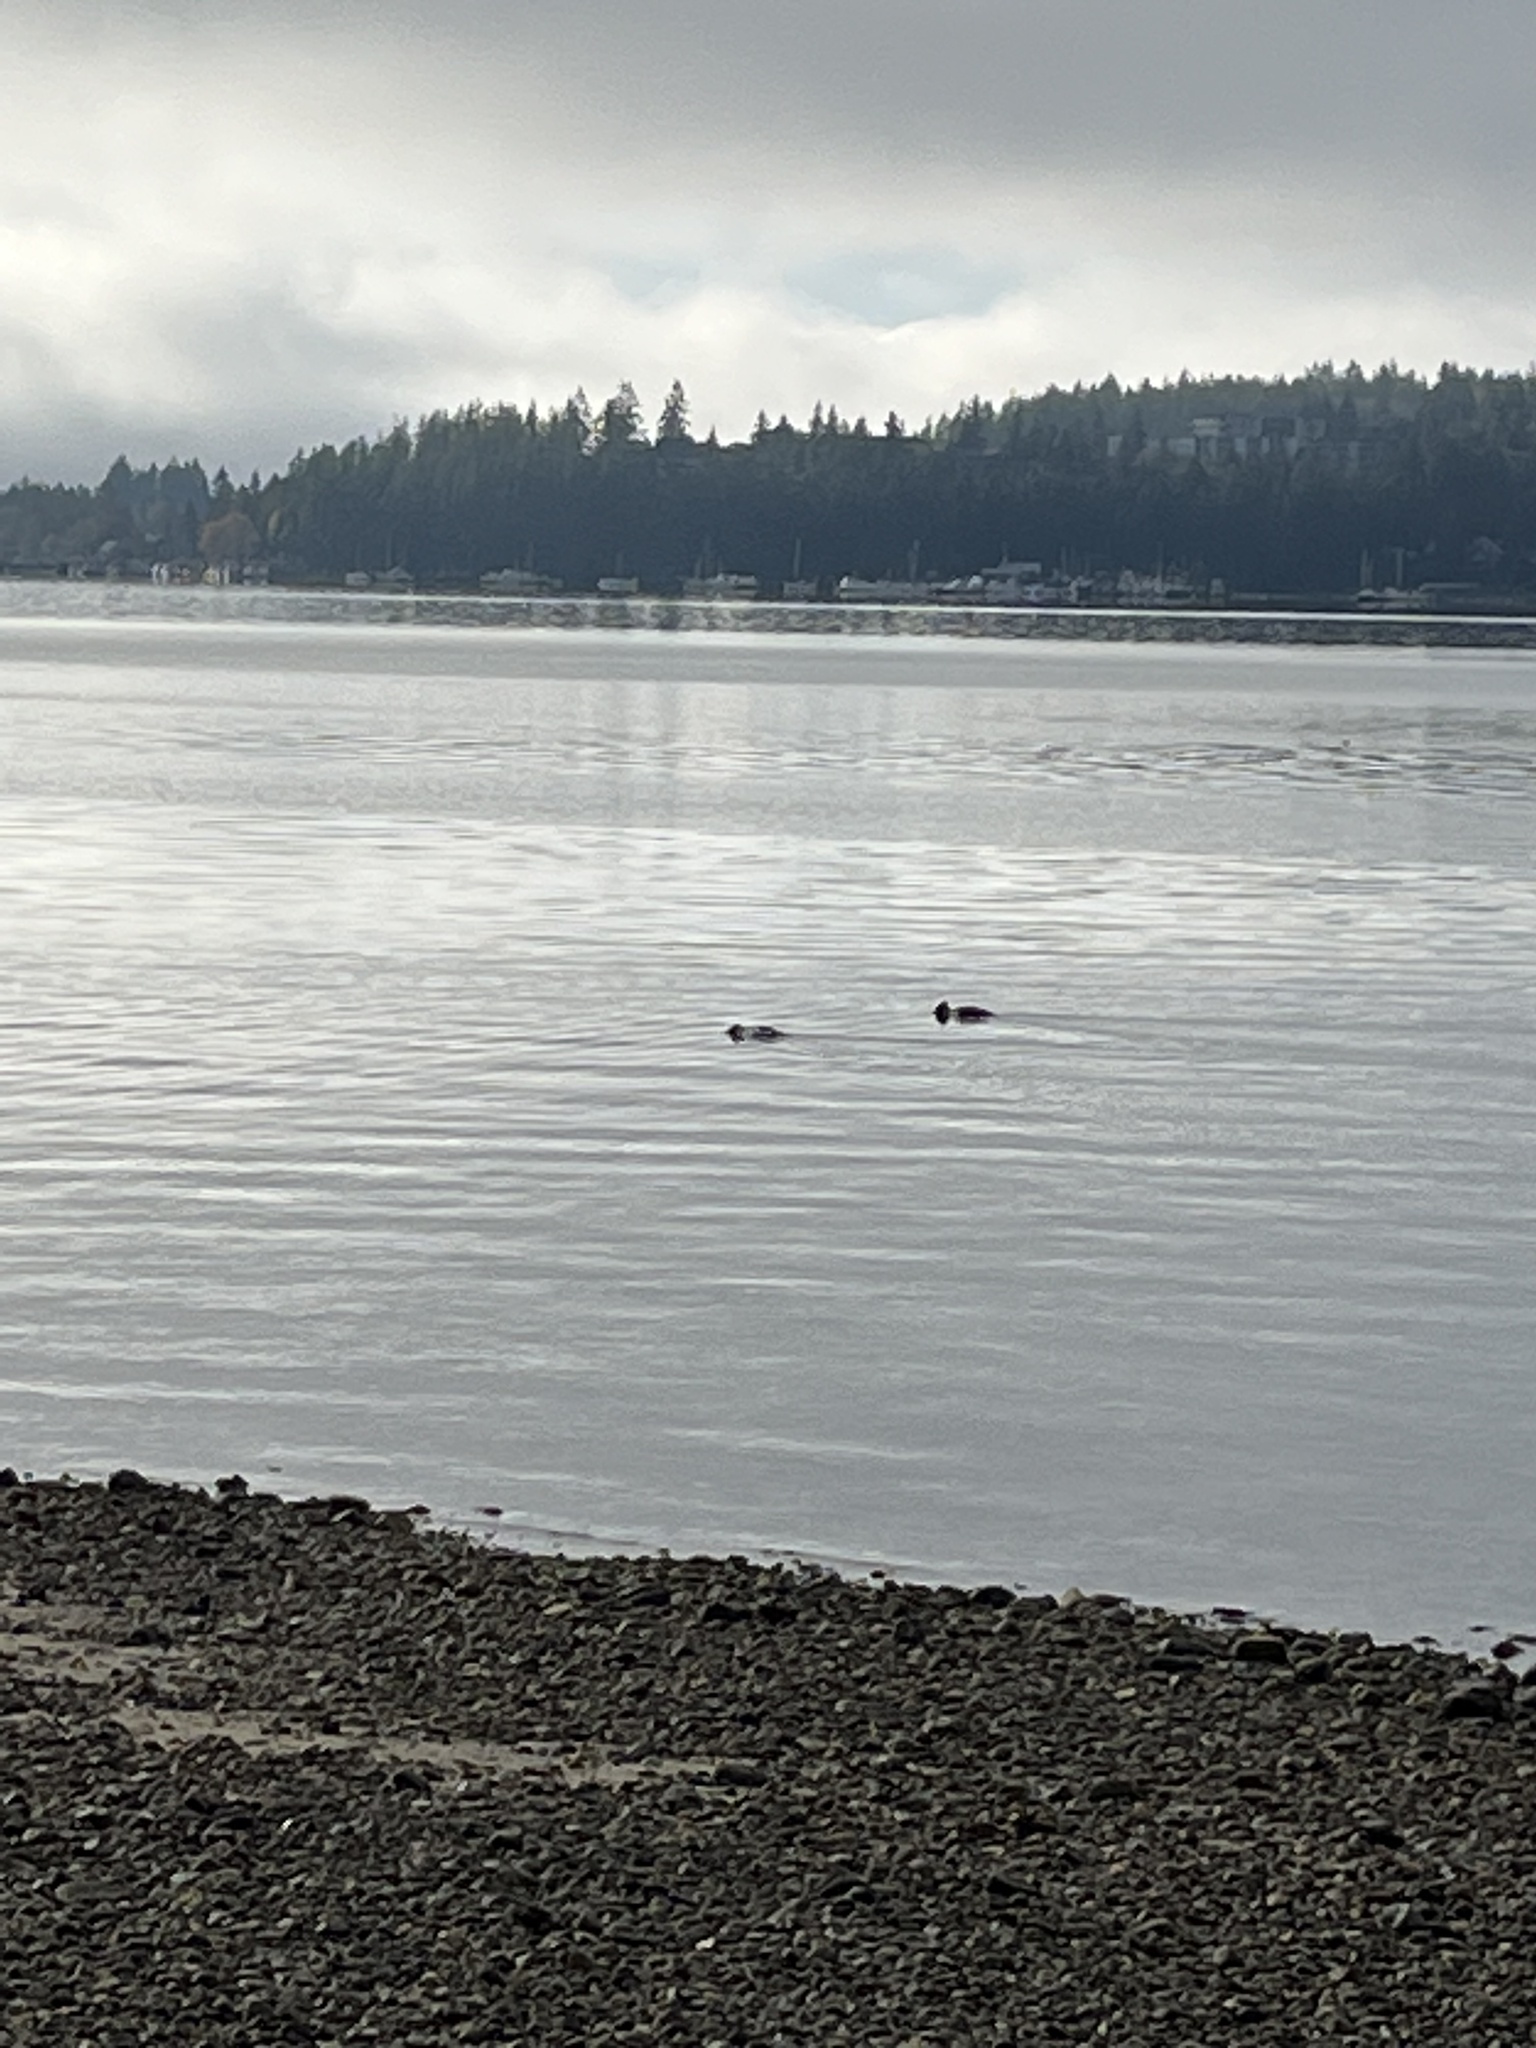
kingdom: Animalia
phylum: Chordata
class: Aves
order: Anseriformes
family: Anatidae
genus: Mergus
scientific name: Mergus merganser
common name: Common merganser
